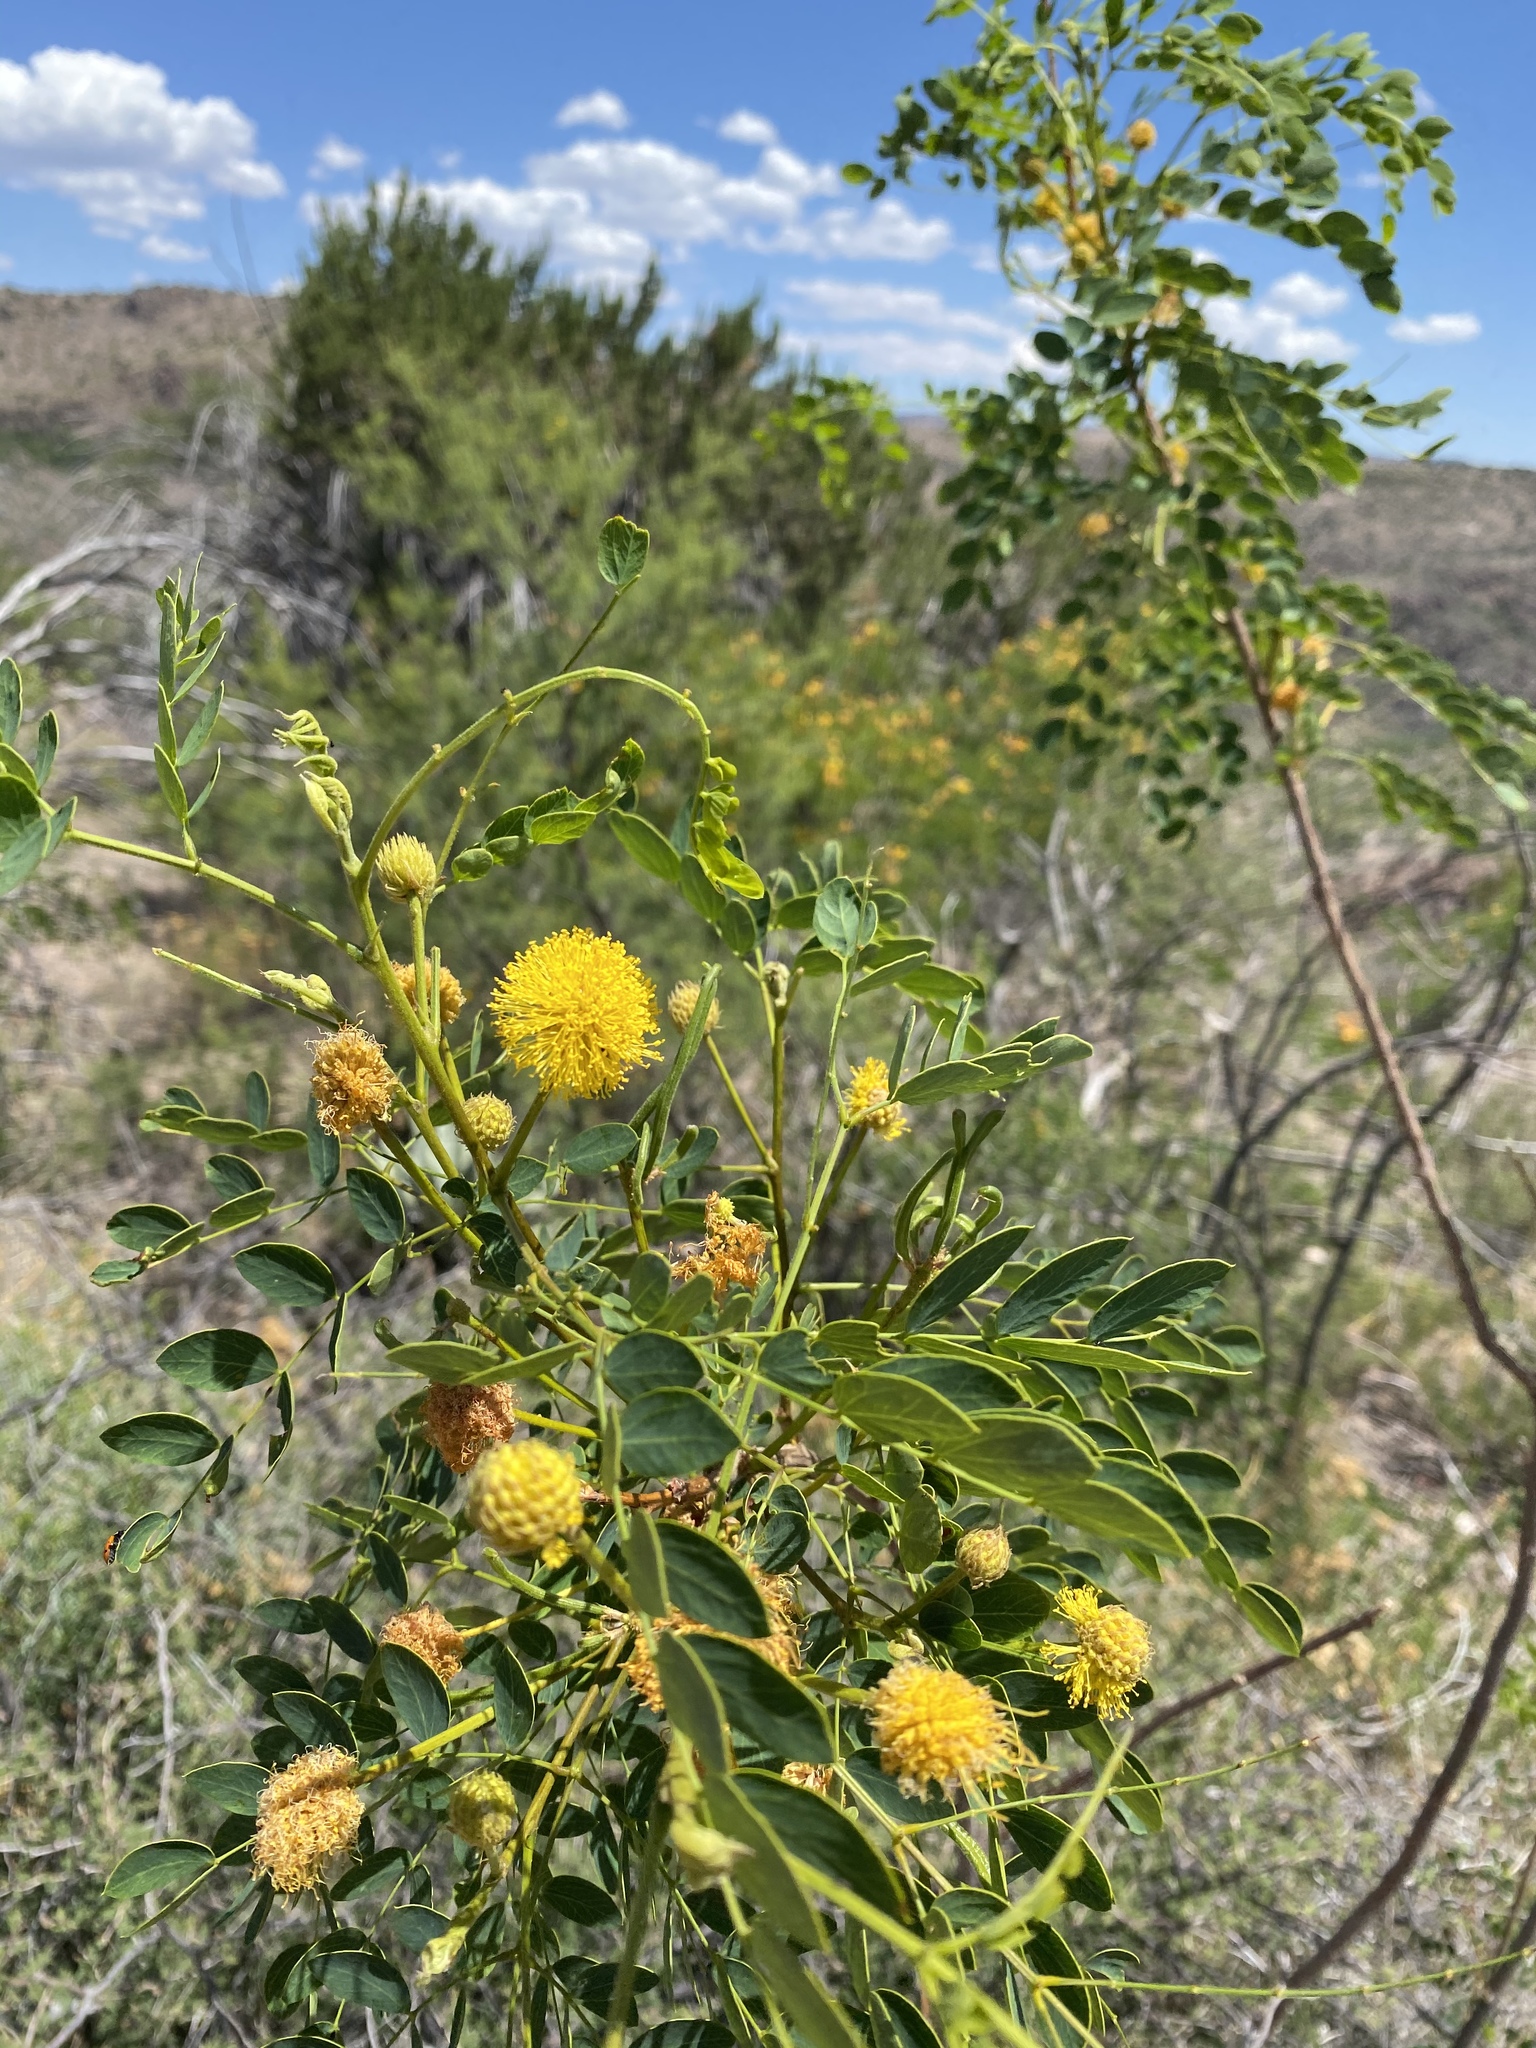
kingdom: Plantae
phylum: Tracheophyta
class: Magnoliopsida
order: Fabales
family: Fabaceae
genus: Leucaena
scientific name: Leucaena retusa
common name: Littleleaf leadtree
